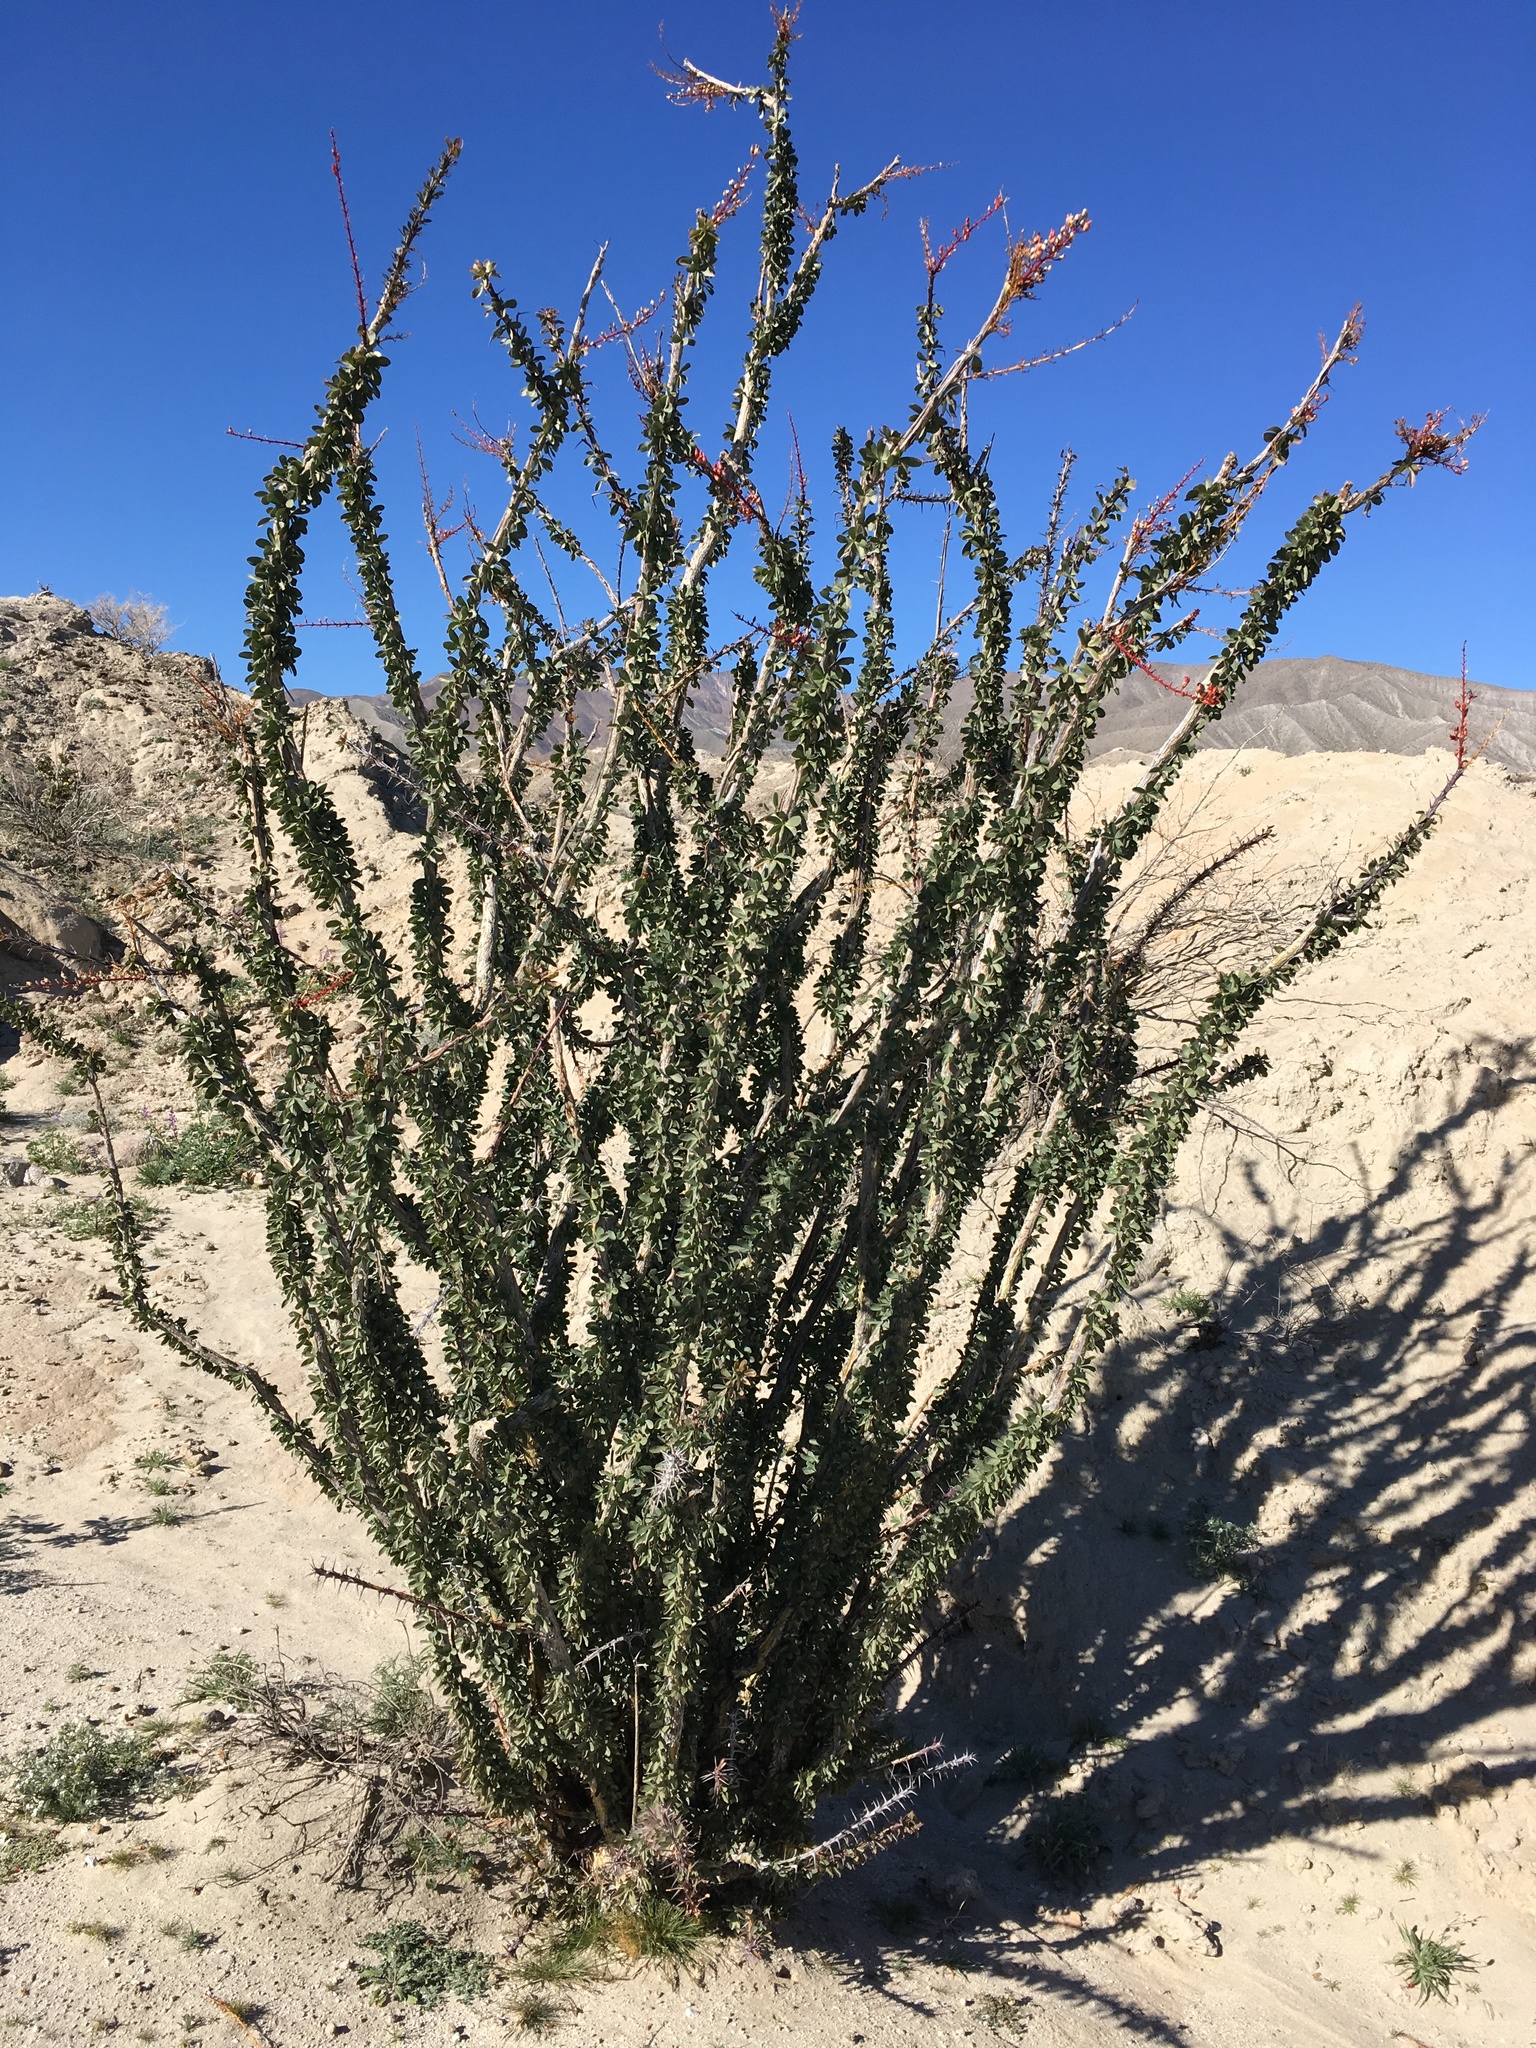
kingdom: Plantae
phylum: Tracheophyta
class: Magnoliopsida
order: Ericales
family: Fouquieriaceae
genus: Fouquieria
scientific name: Fouquieria splendens
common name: Vine-cactus
